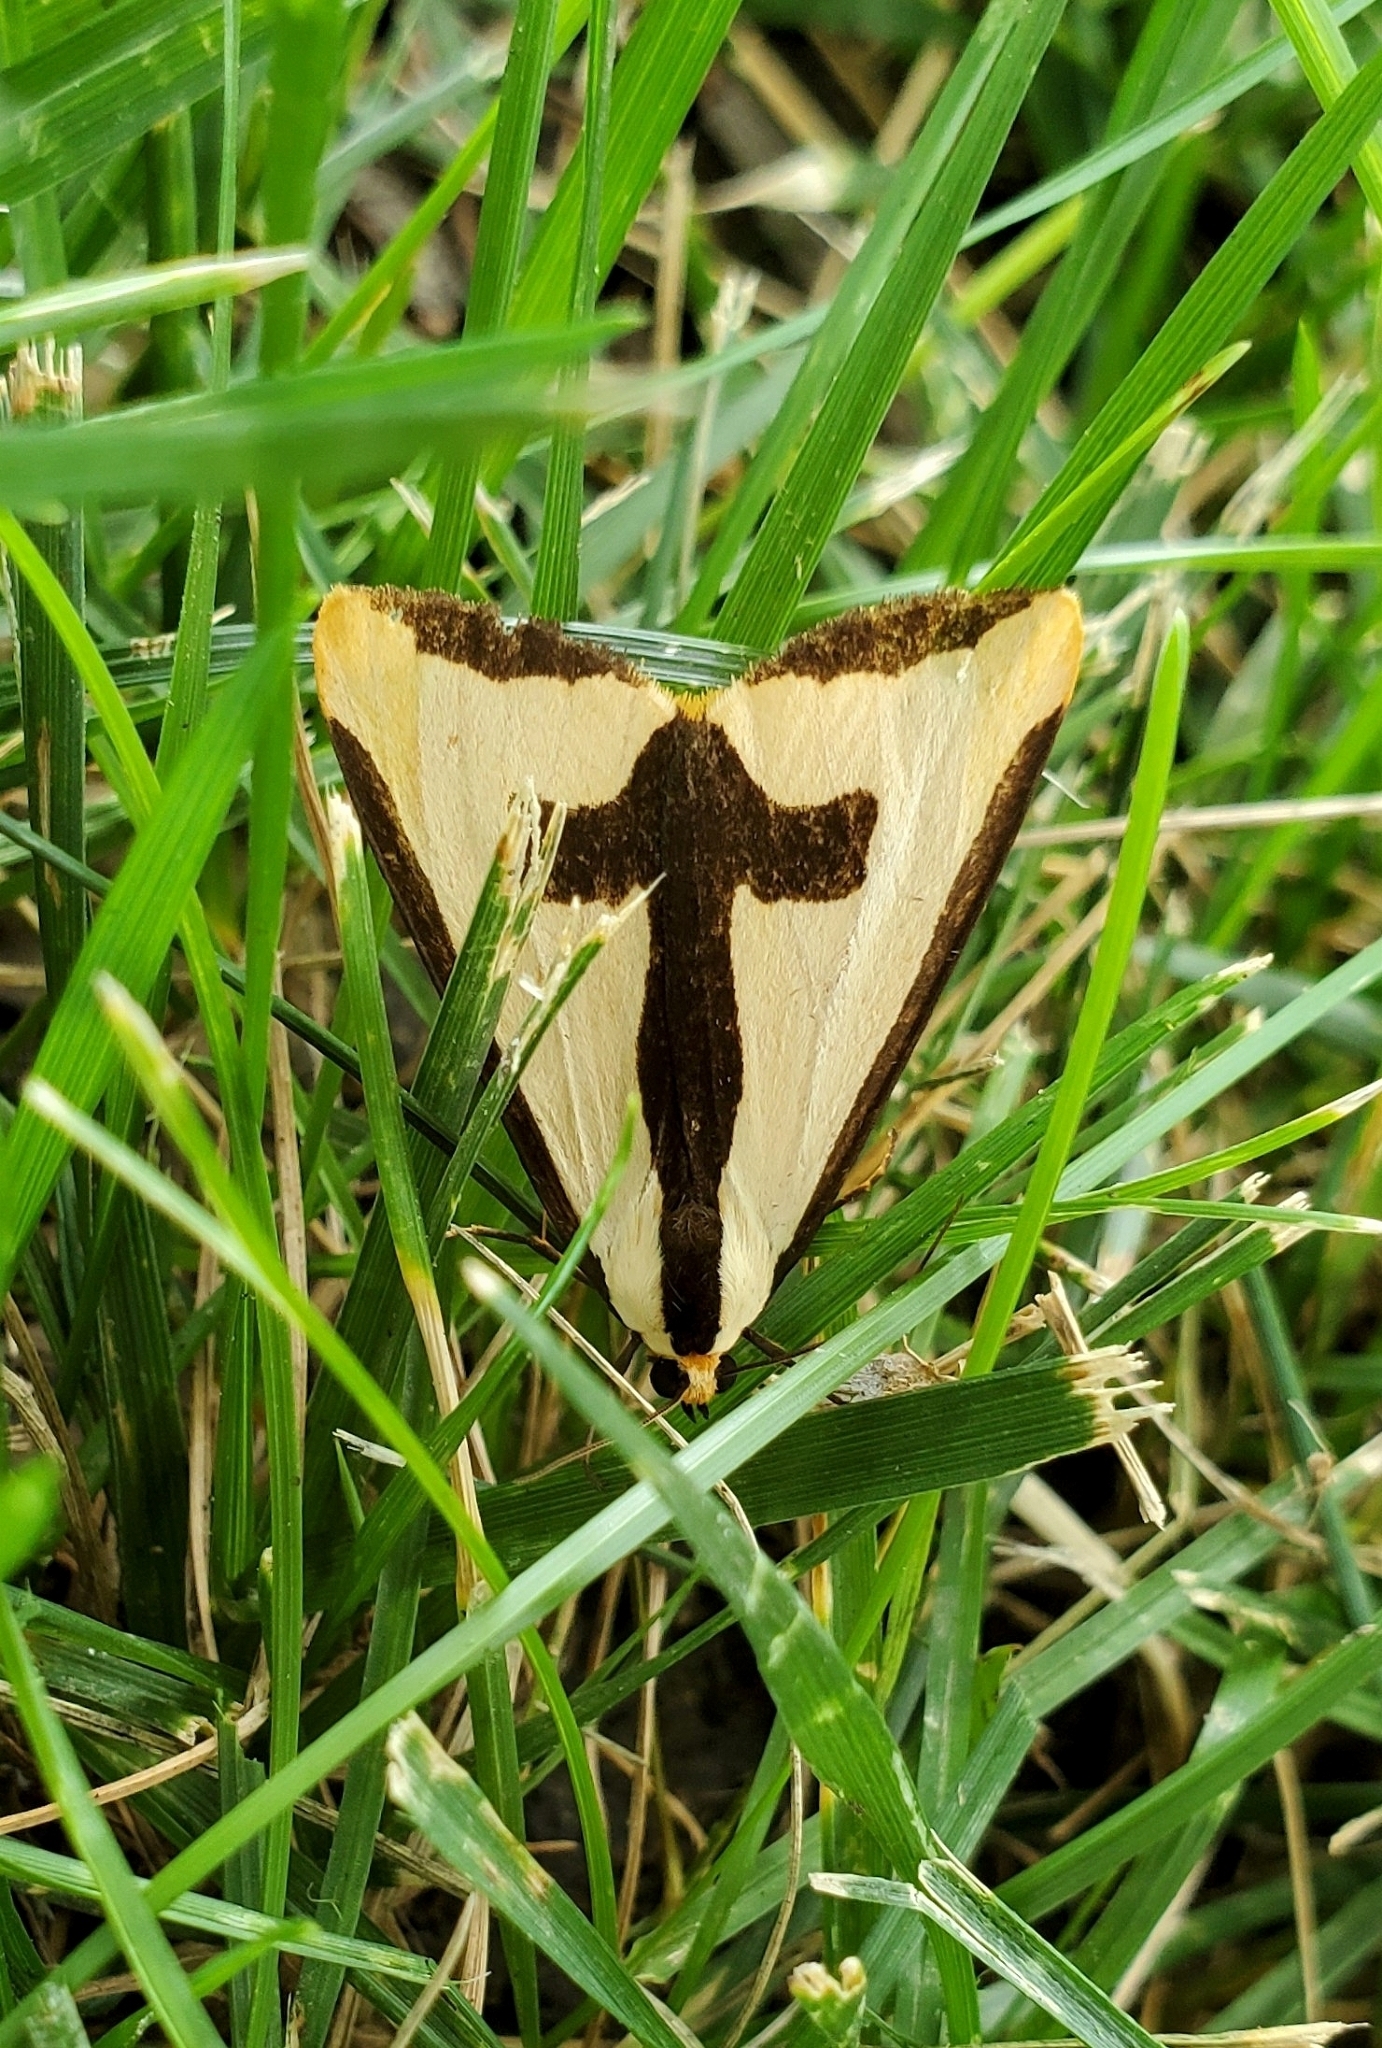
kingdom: Animalia
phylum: Arthropoda
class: Insecta
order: Lepidoptera
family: Erebidae
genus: Haploa
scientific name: Haploa clymene
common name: Clymene moth
